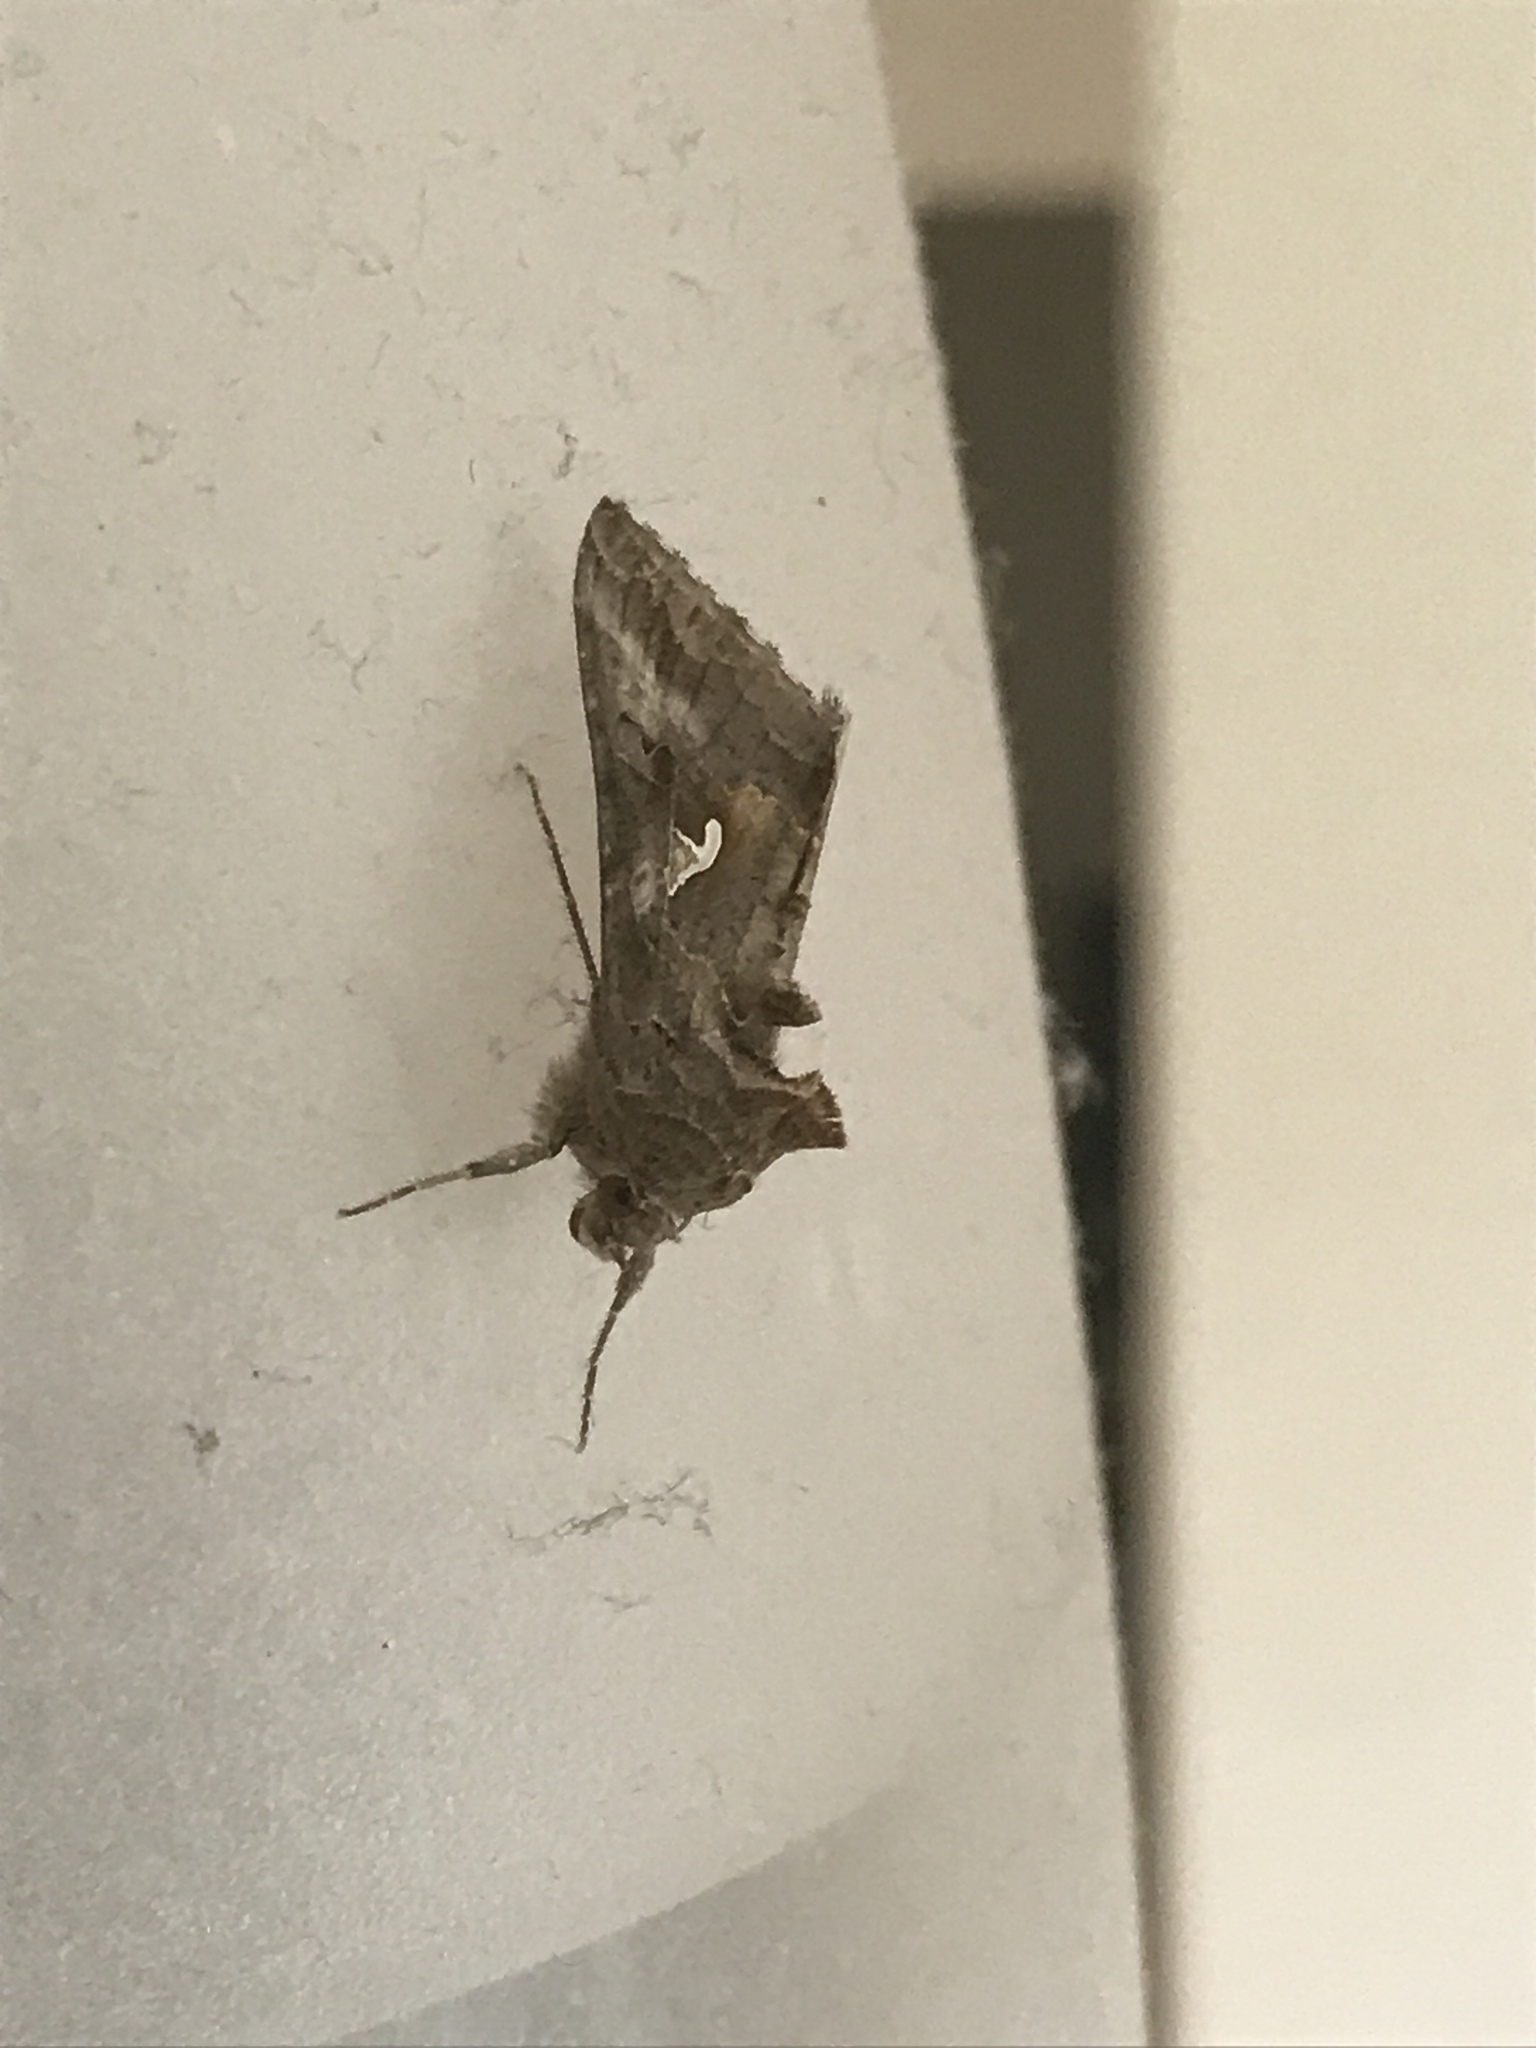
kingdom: Animalia
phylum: Arthropoda
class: Insecta
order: Lepidoptera
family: Noctuidae
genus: Autographa
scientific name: Autographa gamma
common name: Silver y
